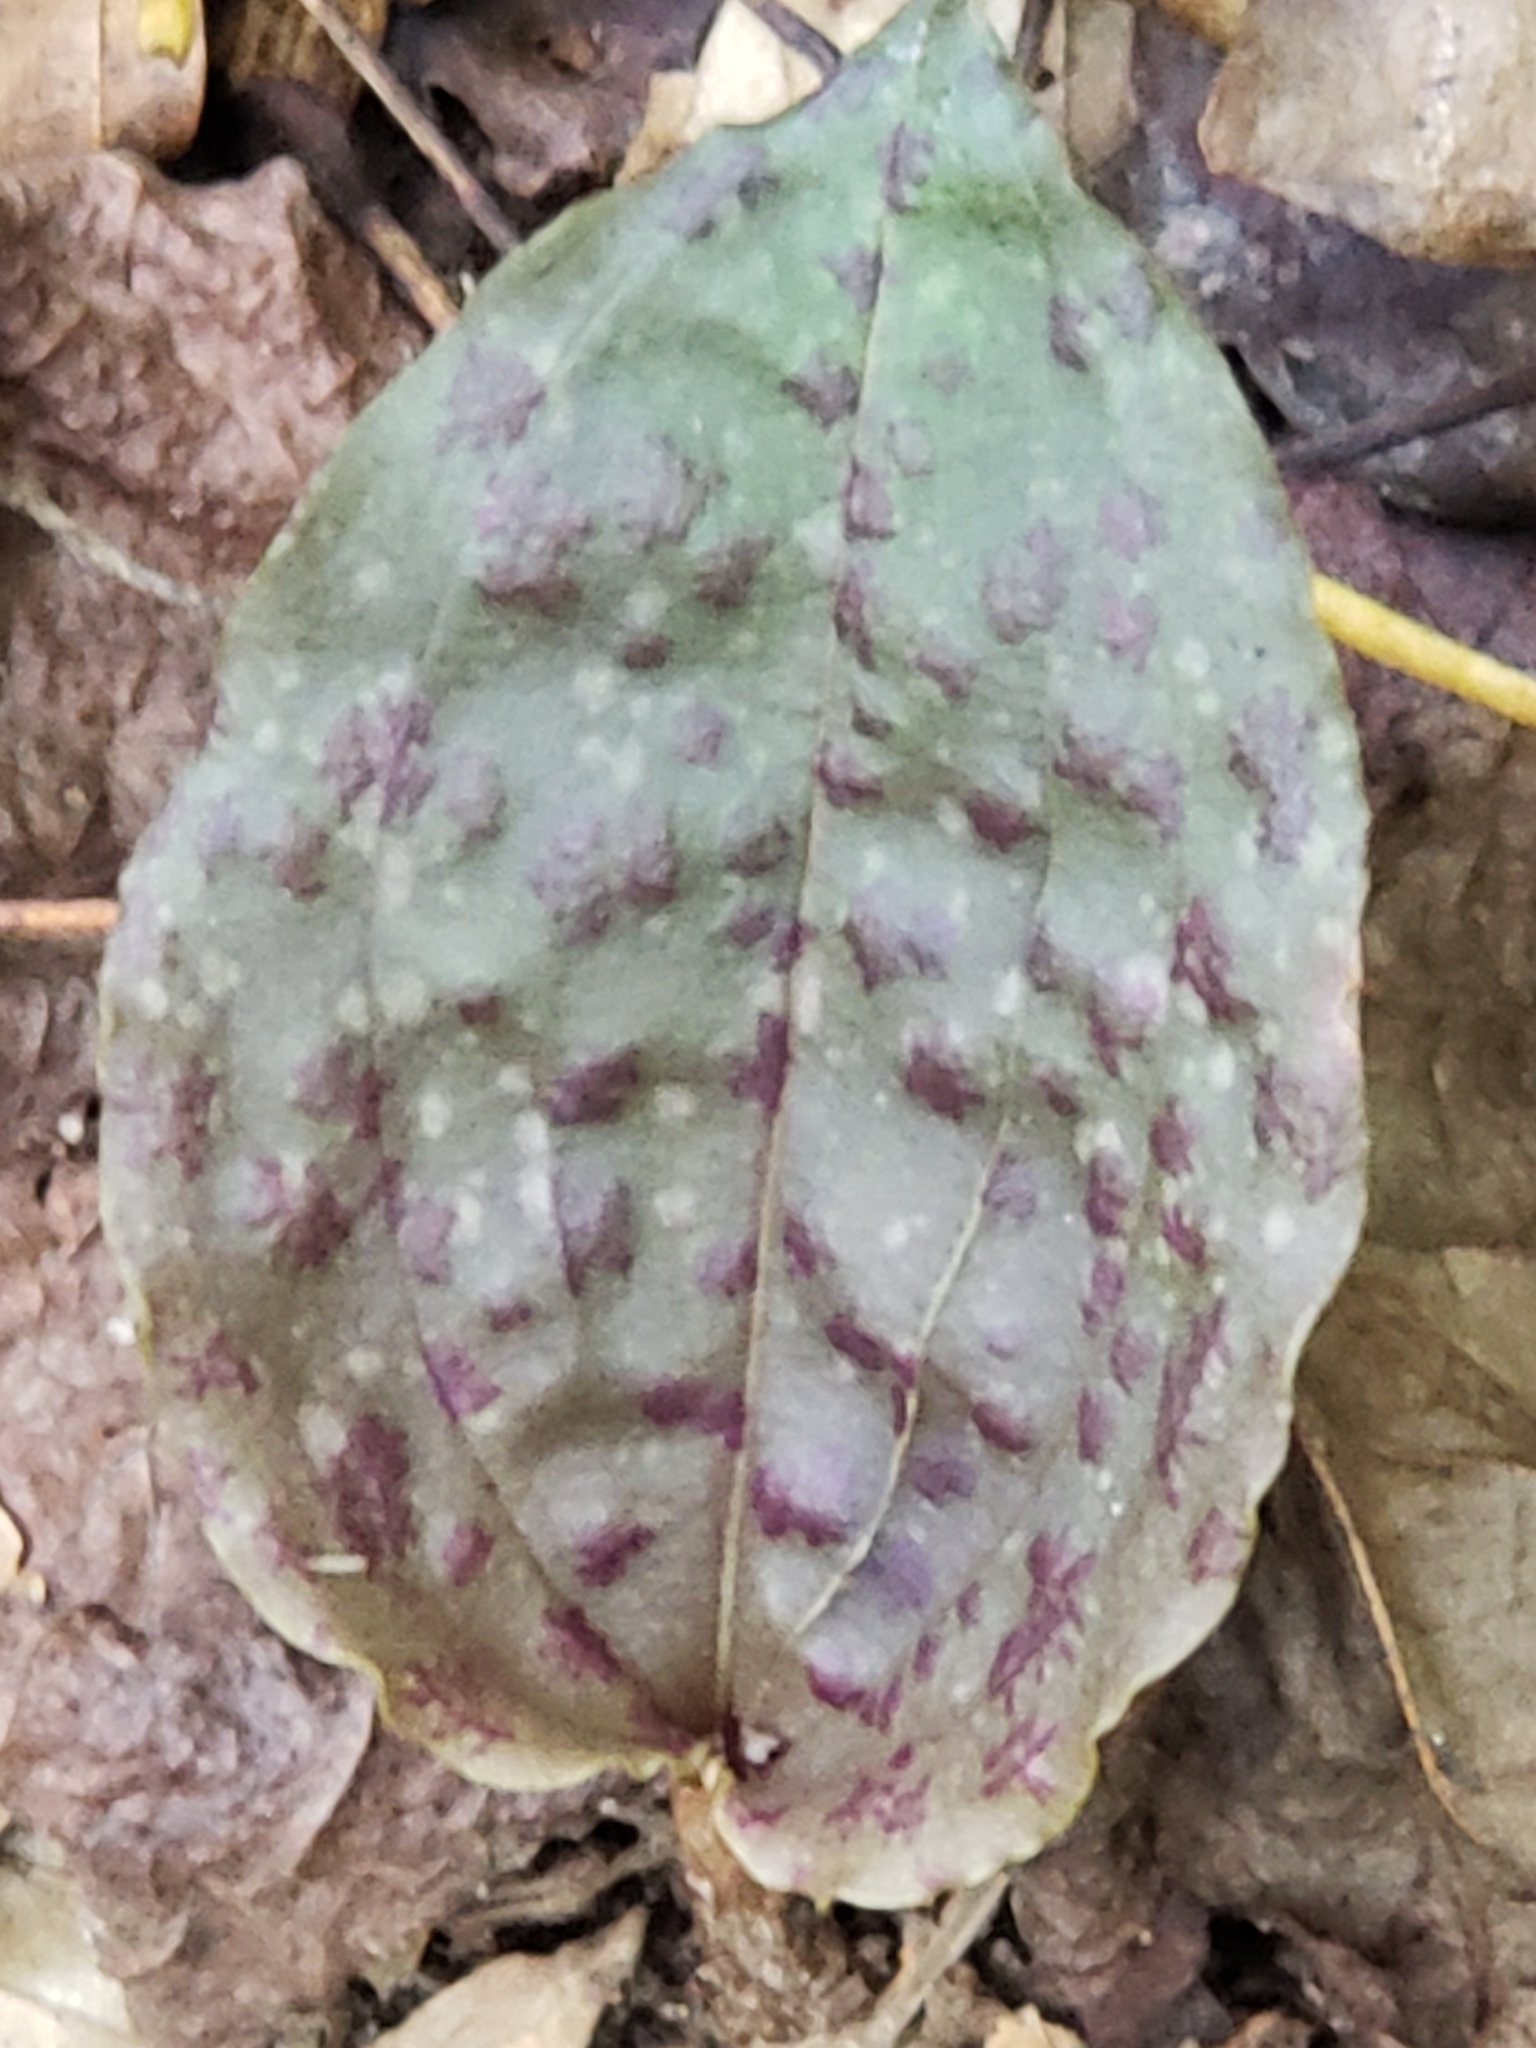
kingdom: Plantae
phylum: Tracheophyta
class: Liliopsida
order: Asparagales
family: Orchidaceae
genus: Tipularia
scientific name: Tipularia discolor
